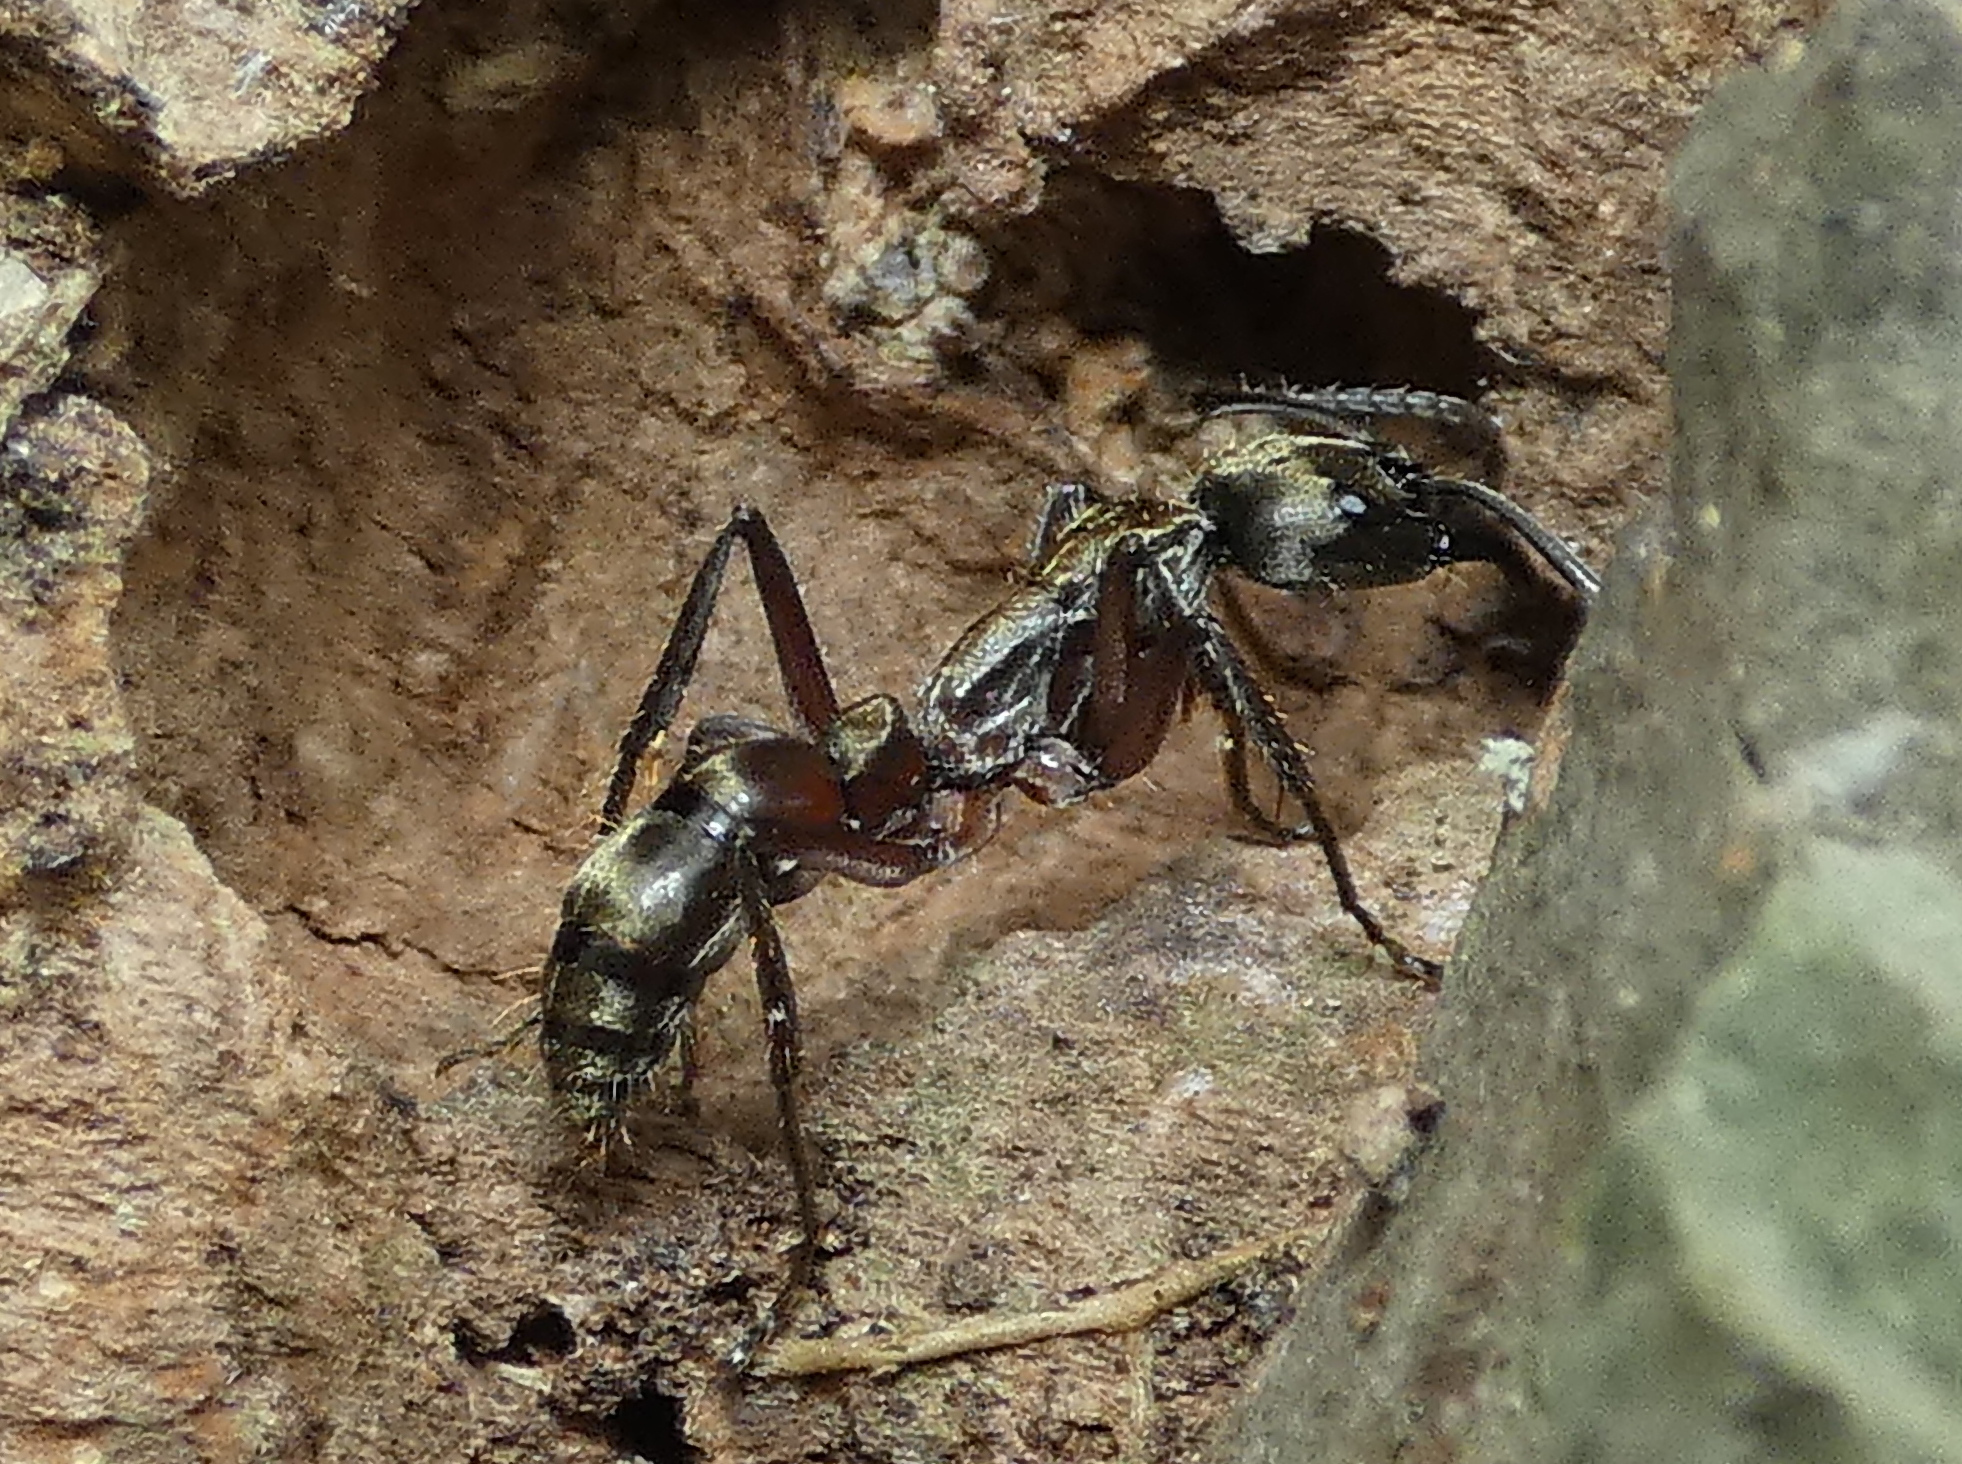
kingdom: Animalia
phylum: Arthropoda
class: Insecta
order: Hymenoptera
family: Formicidae
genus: Pachycondyla
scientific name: Pachycondyla villosa
